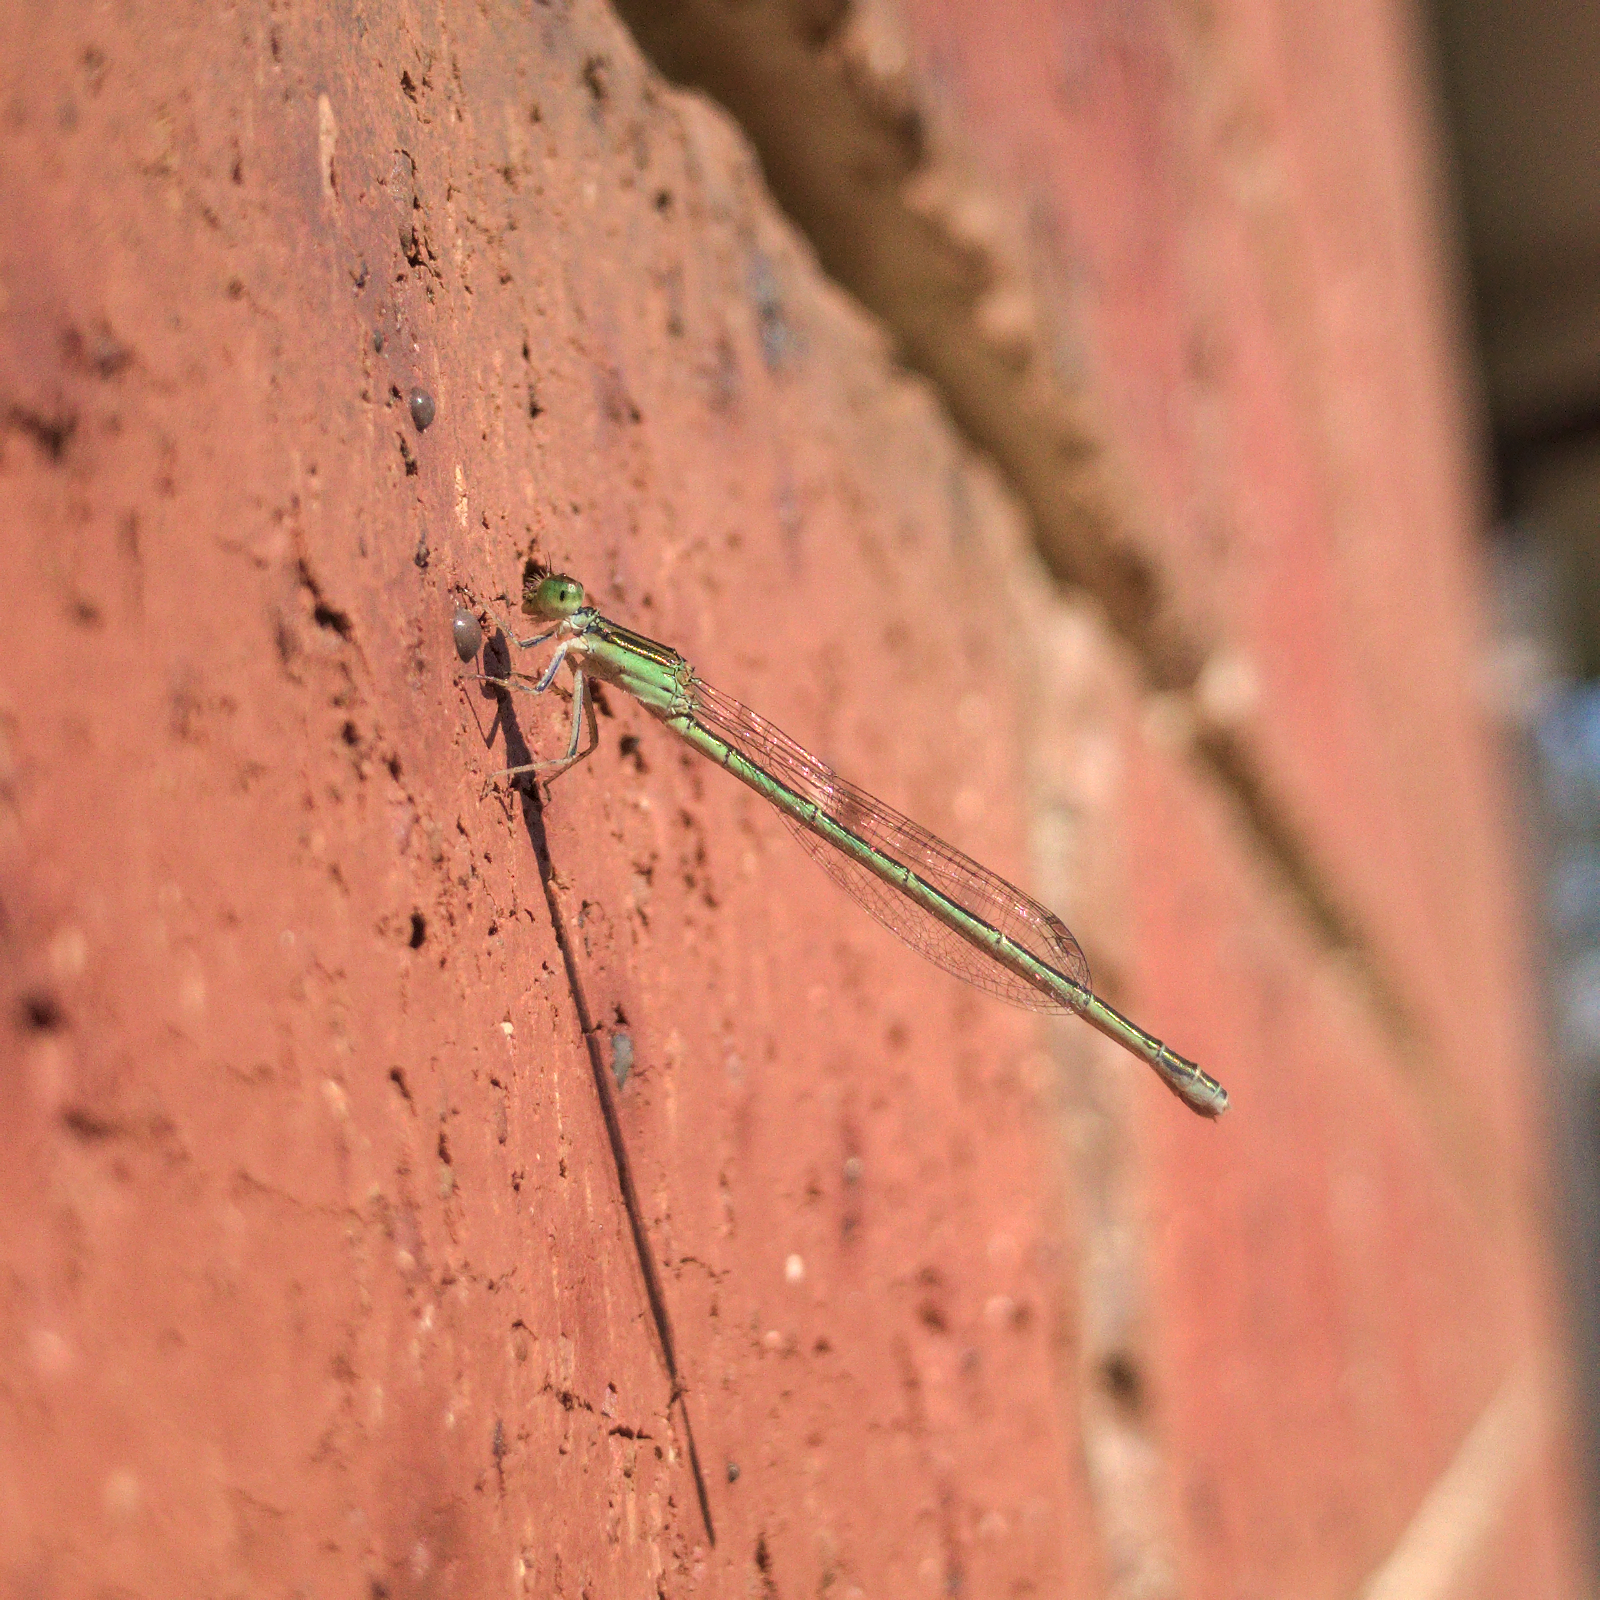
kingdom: Animalia
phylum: Arthropoda
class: Insecta
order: Odonata
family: Coenagrionidae
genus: Ischnura
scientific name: Ischnura aurora
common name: Gossamer damselfly
